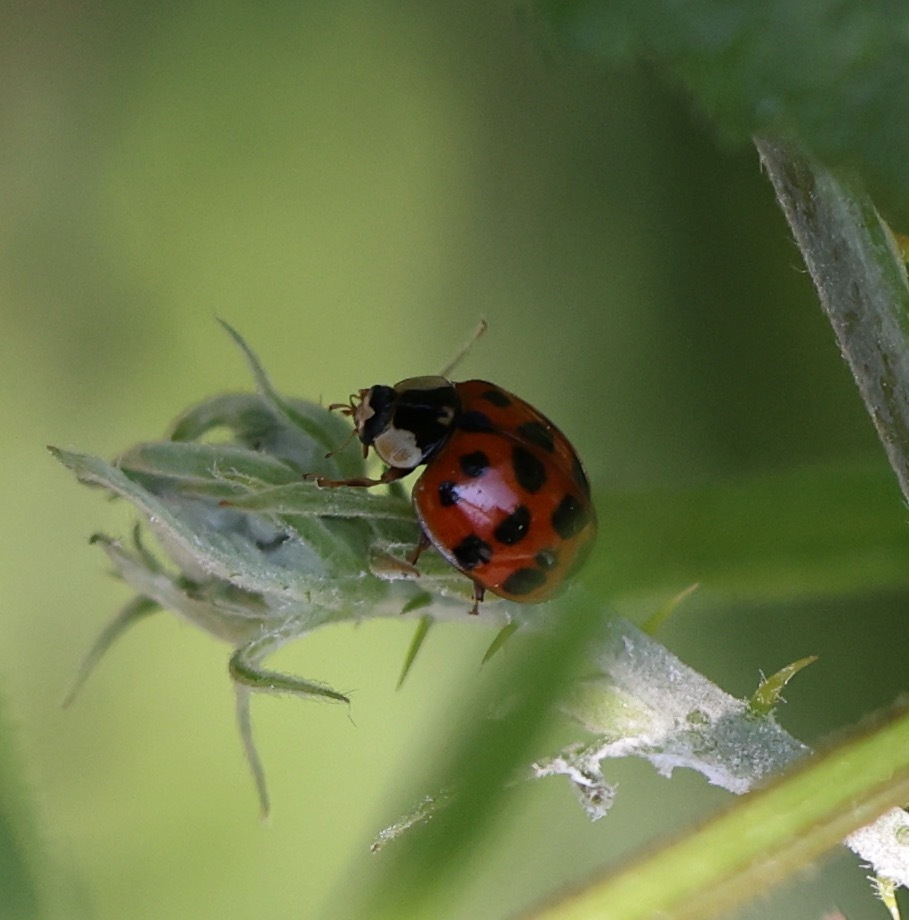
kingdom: Animalia
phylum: Arthropoda
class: Insecta
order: Coleoptera
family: Coccinellidae
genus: Harmonia
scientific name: Harmonia axyridis
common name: Harlequin ladybird
